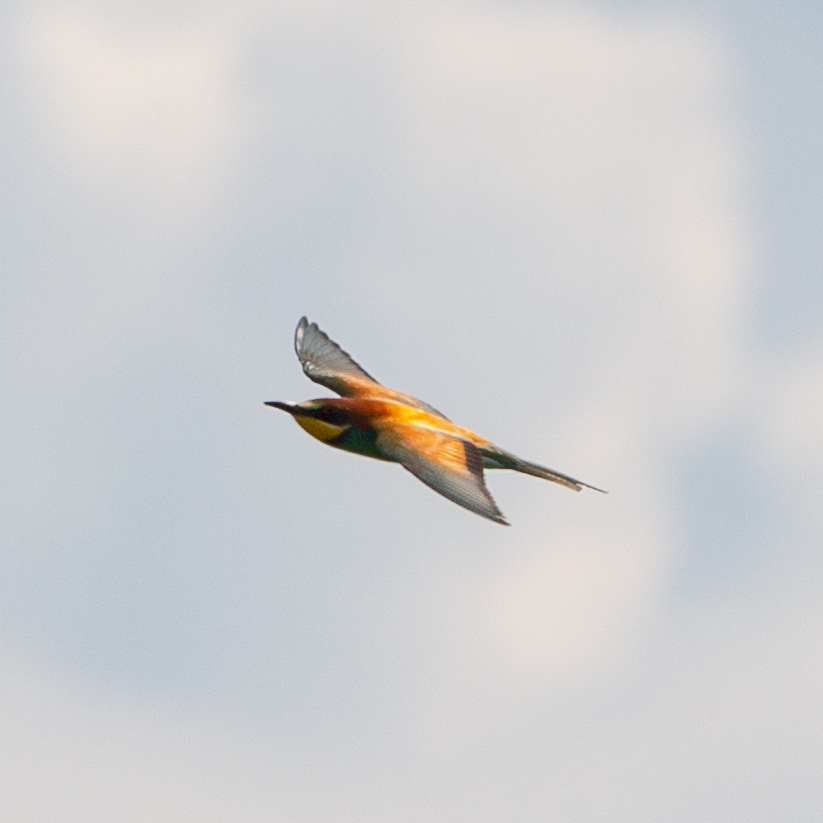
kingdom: Animalia
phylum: Chordata
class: Aves
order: Coraciiformes
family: Meropidae
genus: Merops
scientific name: Merops apiaster
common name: European bee-eater
